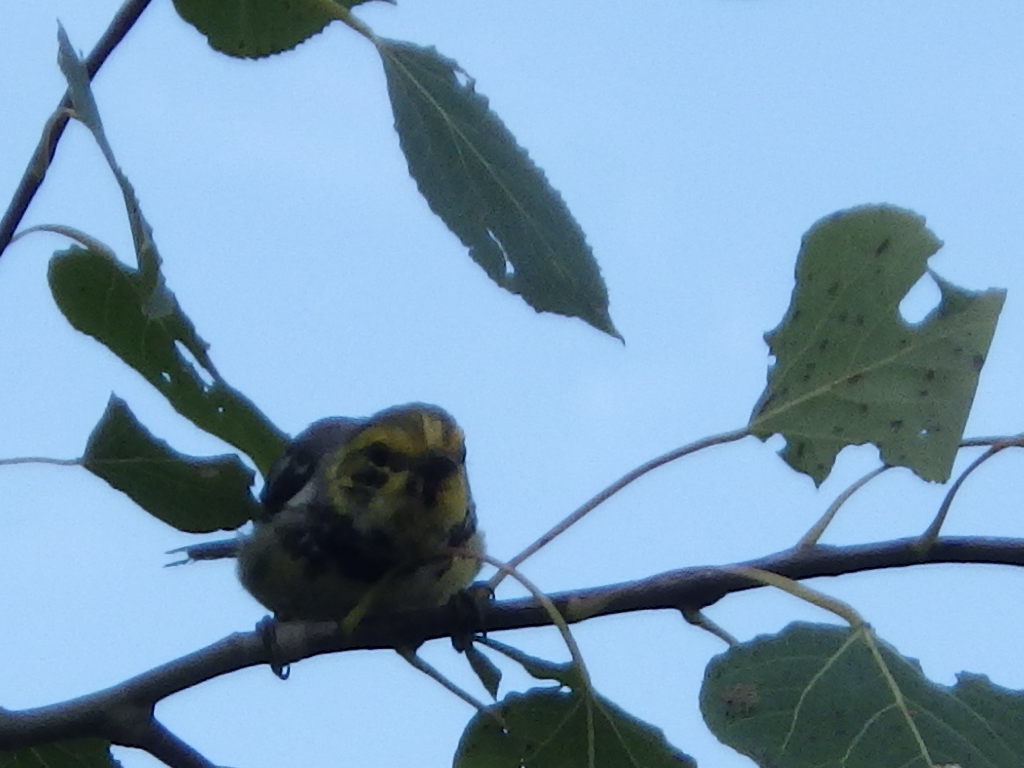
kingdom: Animalia
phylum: Chordata
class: Aves
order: Passeriformes
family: Parulidae
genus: Setophaga
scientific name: Setophaga virens
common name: Black-throated green warbler
